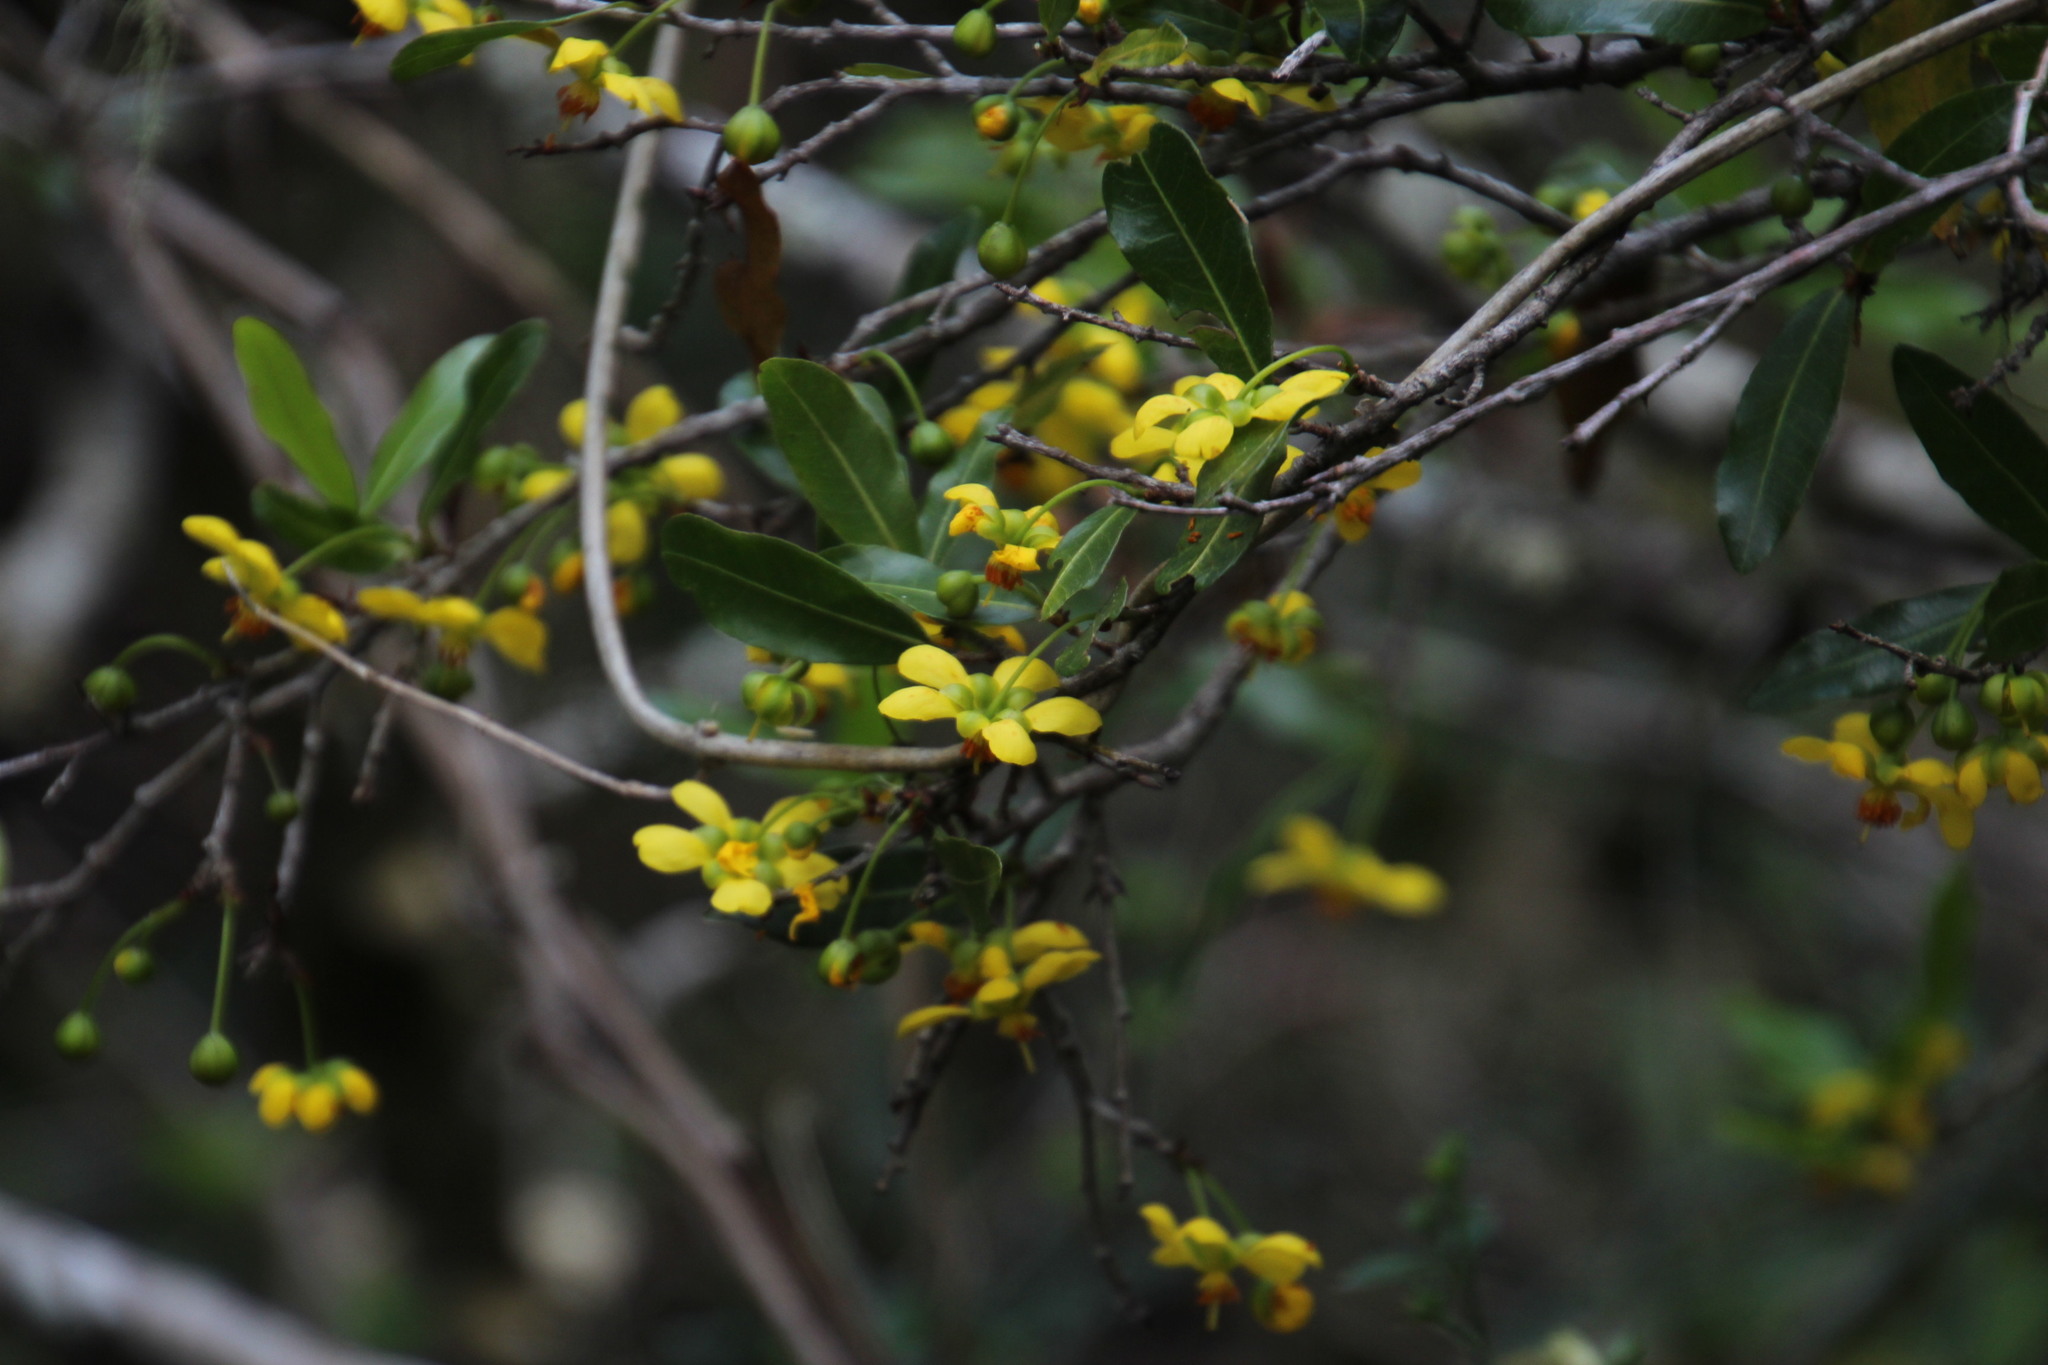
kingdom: Plantae
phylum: Tracheophyta
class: Magnoliopsida
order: Malpighiales
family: Ochnaceae
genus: Ochna
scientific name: Ochna serrulata
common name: Mickey mouse plant
